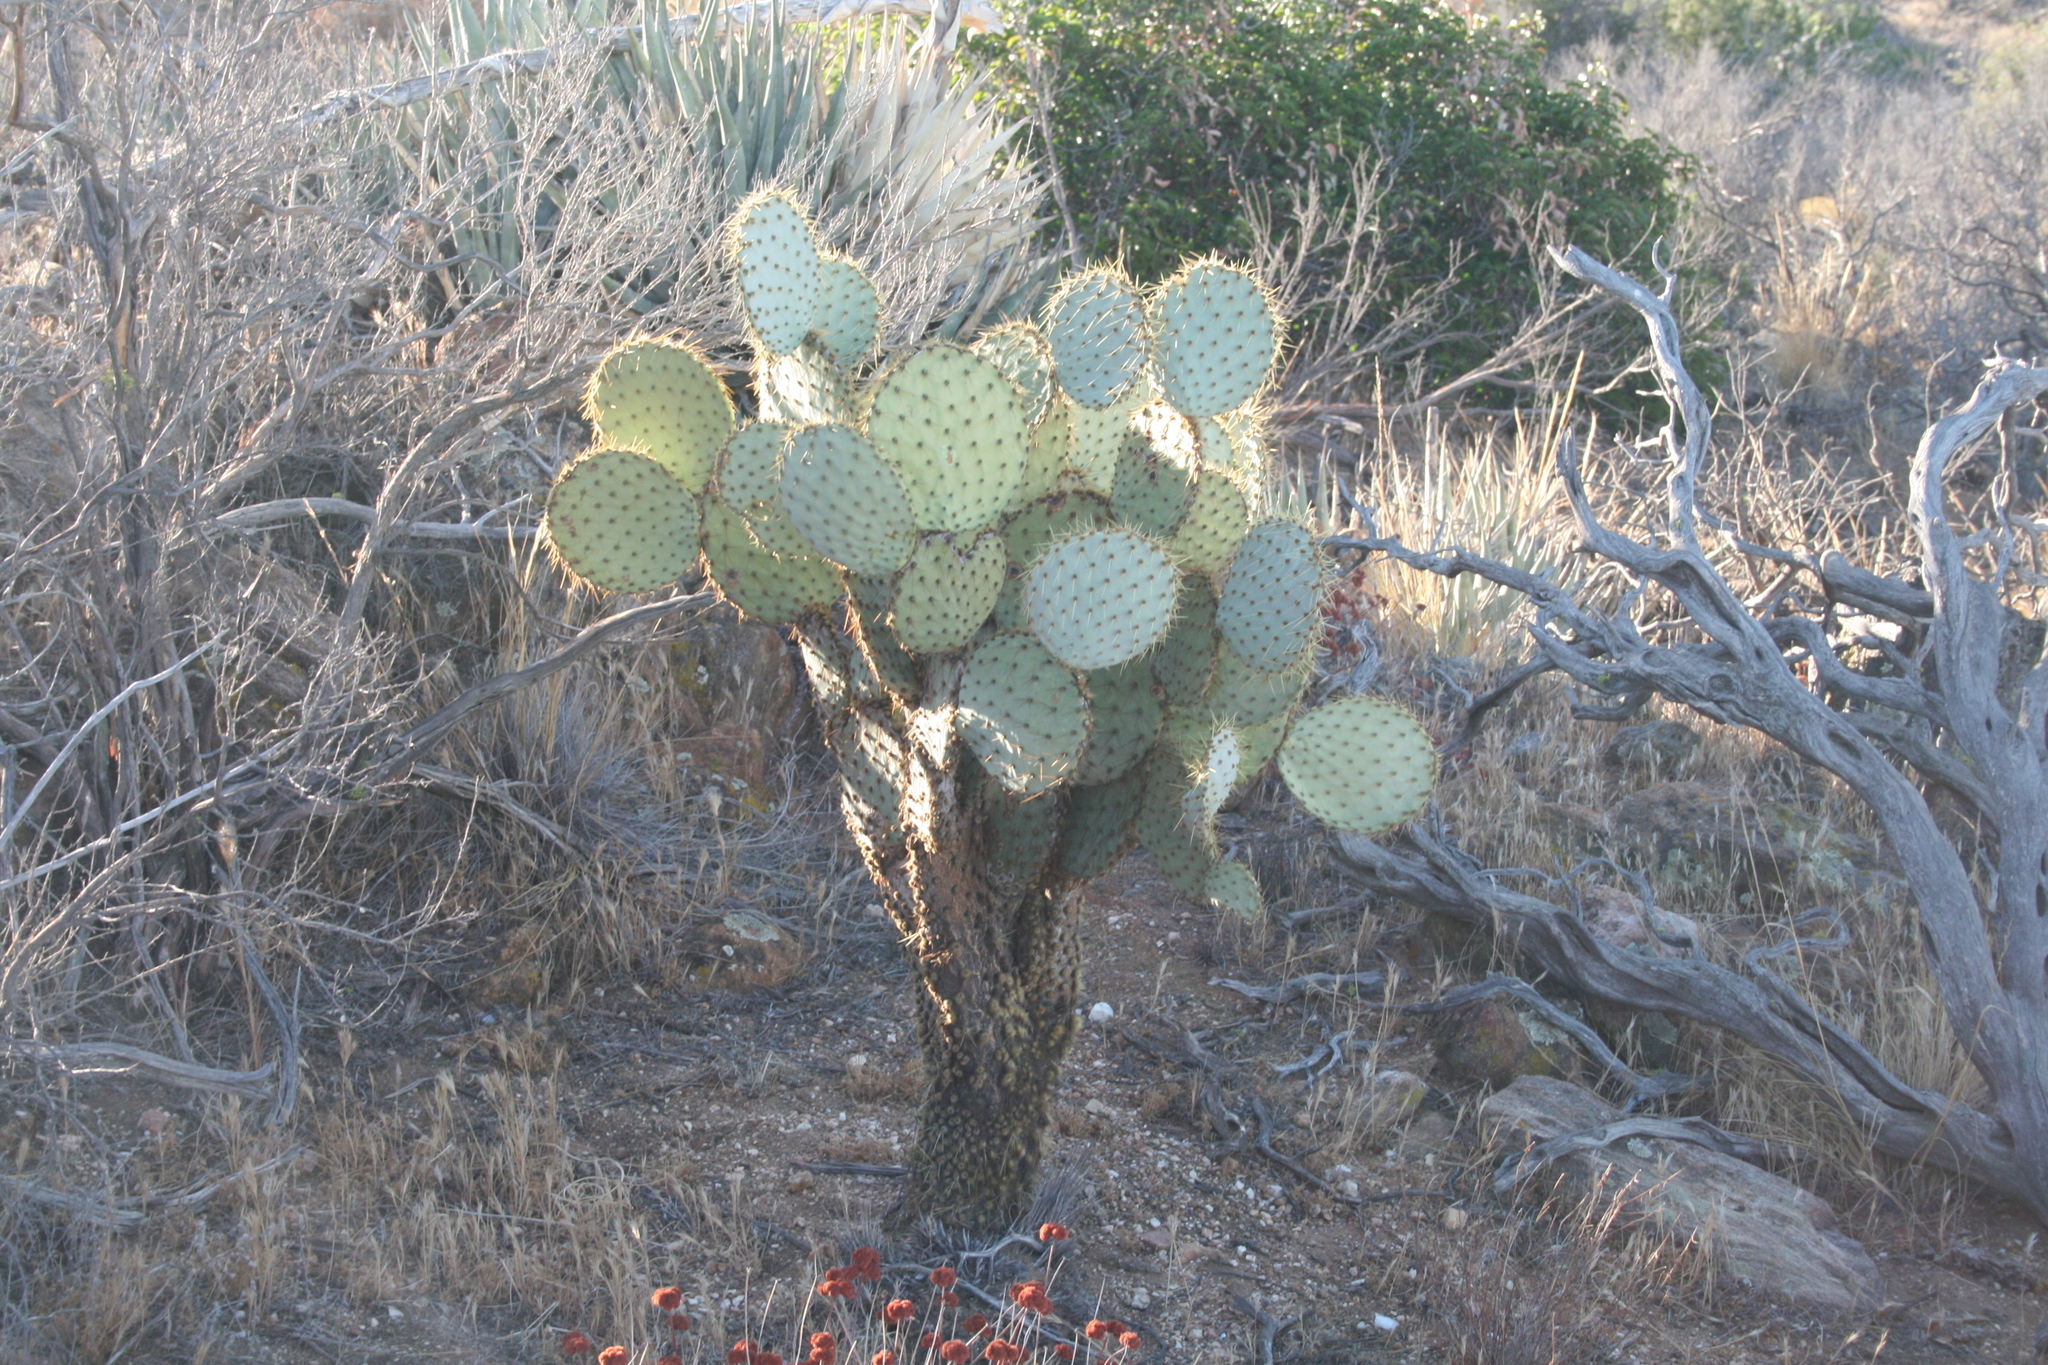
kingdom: Plantae
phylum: Tracheophyta
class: Magnoliopsida
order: Caryophyllales
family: Cactaceae
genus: Opuntia
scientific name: Opuntia chlorotica
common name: Dollar-joint prickly-pear
